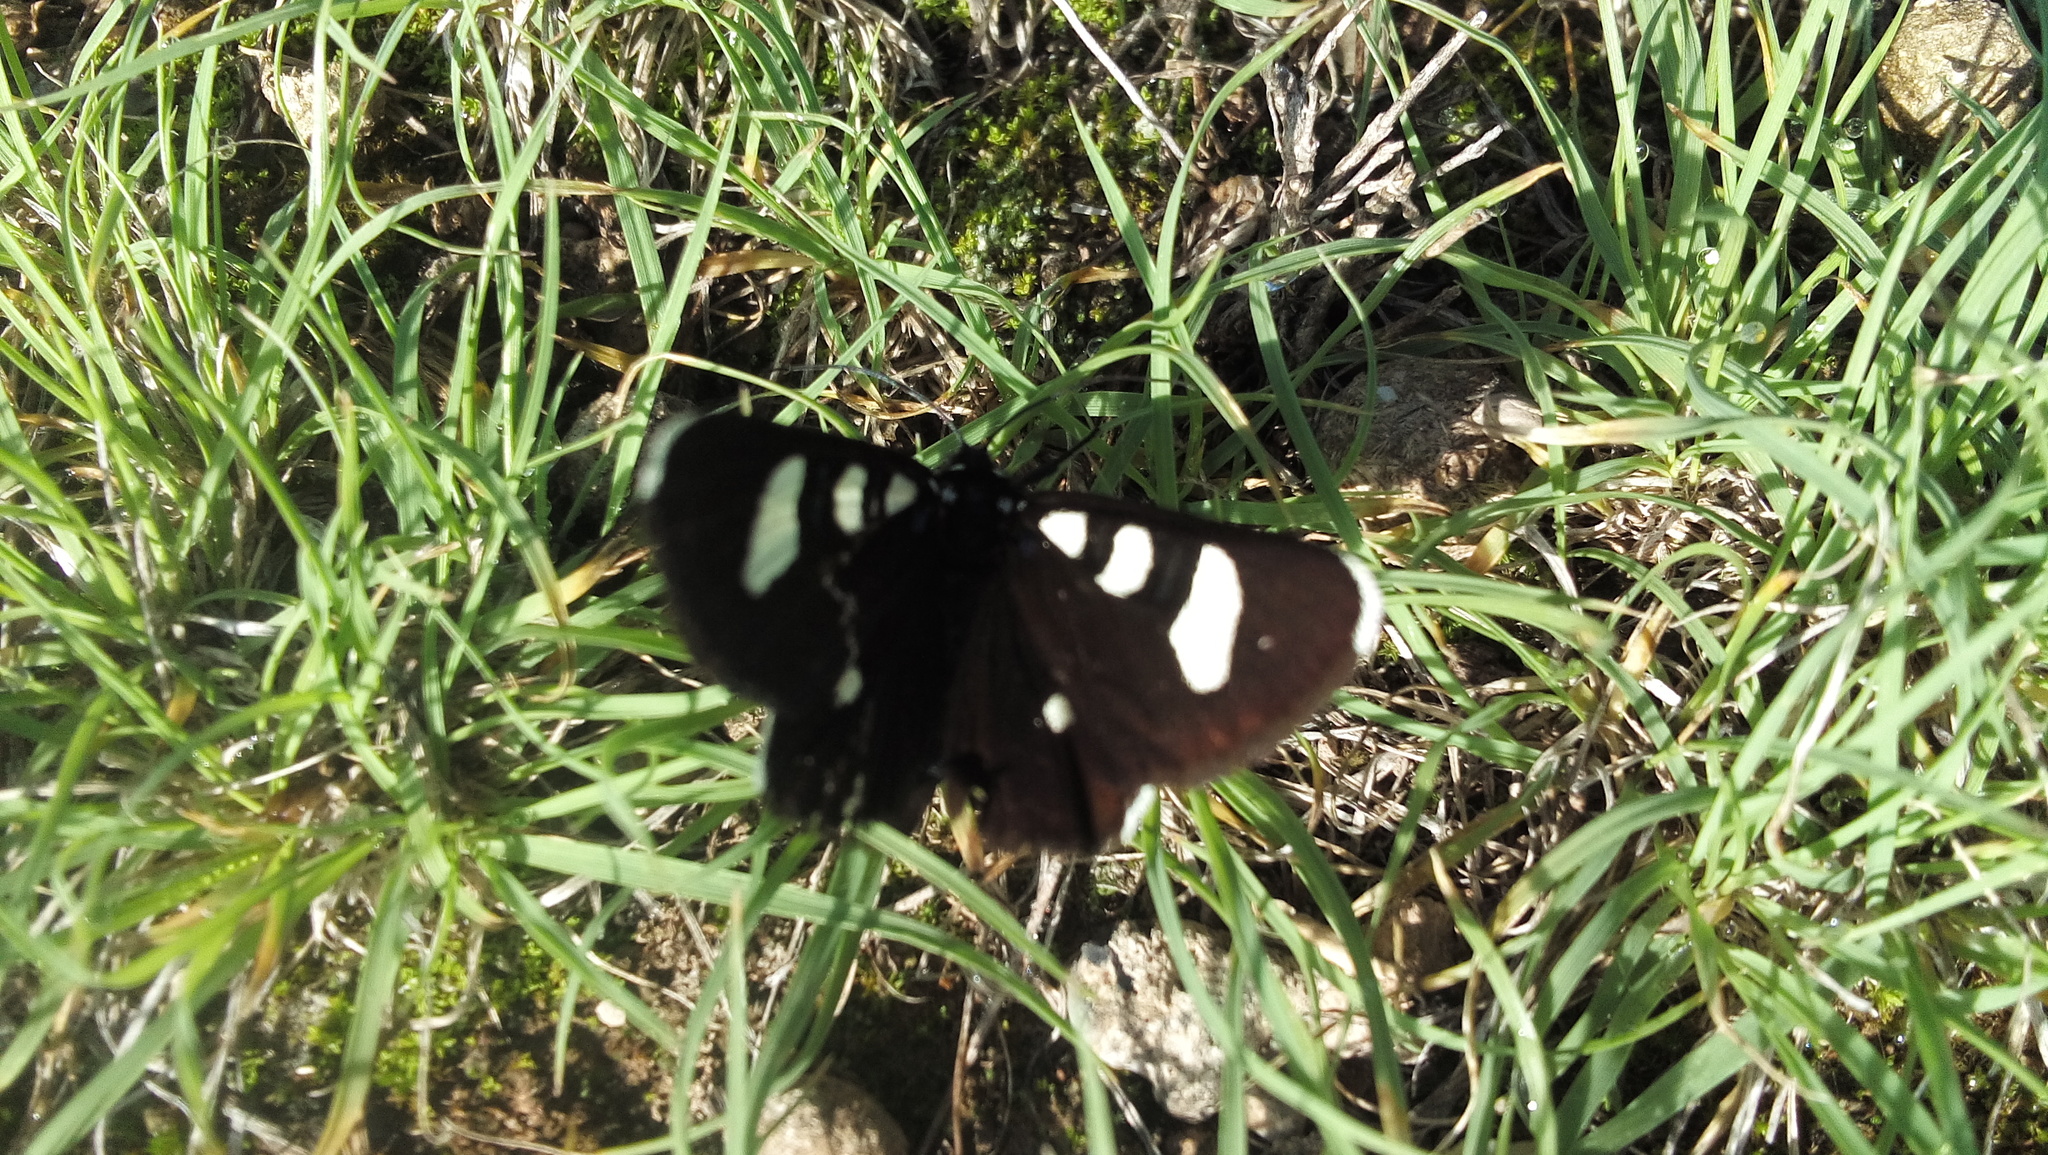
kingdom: Animalia
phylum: Arthropoda
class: Insecta
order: Lepidoptera
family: Noctuidae
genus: Alypiodes
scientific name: Alypiodes bimaculata
